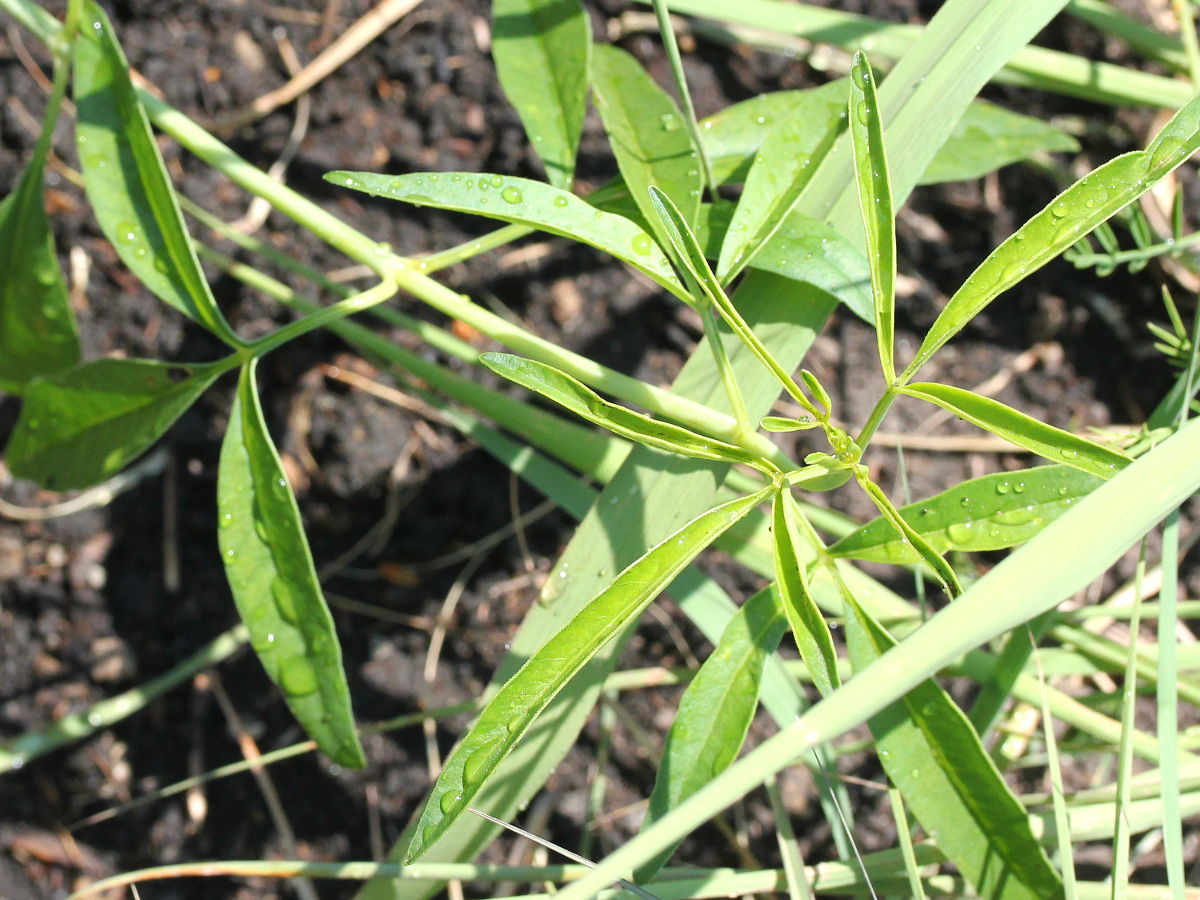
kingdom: Plantae
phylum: Tracheophyta
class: Magnoliopsida
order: Asterales
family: Asteraceae
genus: Coreopsis
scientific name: Coreopsis tripteris
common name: Tall coreopsis
